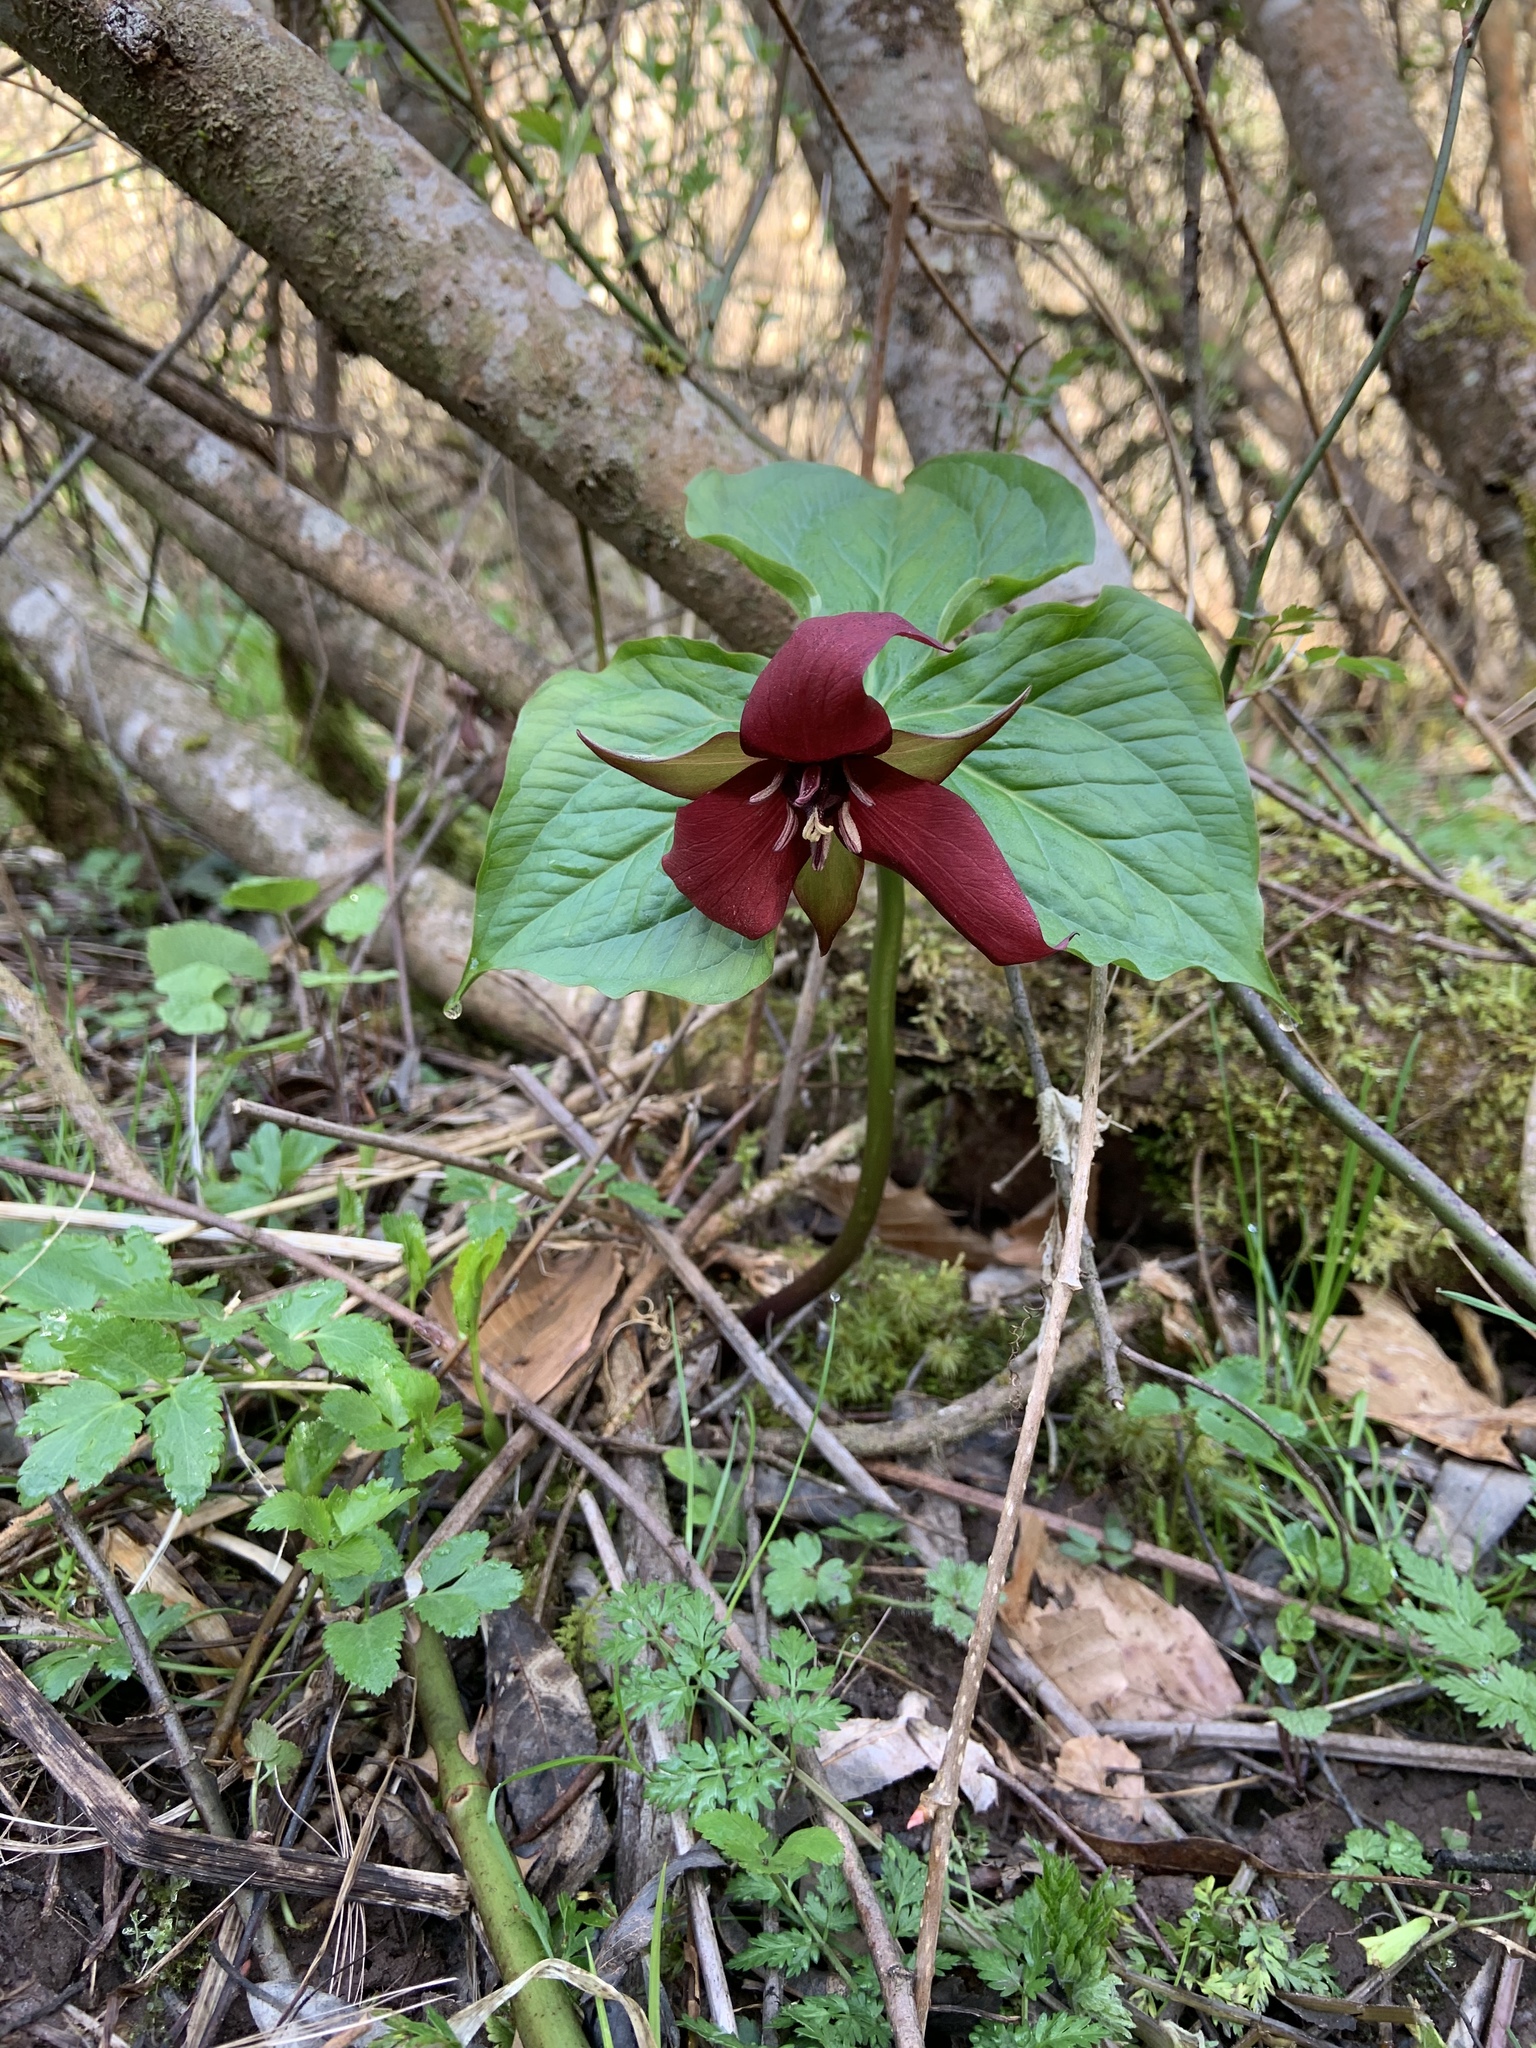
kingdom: Plantae
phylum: Tracheophyta
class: Liliopsida
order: Liliales
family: Melanthiaceae
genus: Trillium
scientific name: Trillium erectum
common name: Purple trillium
